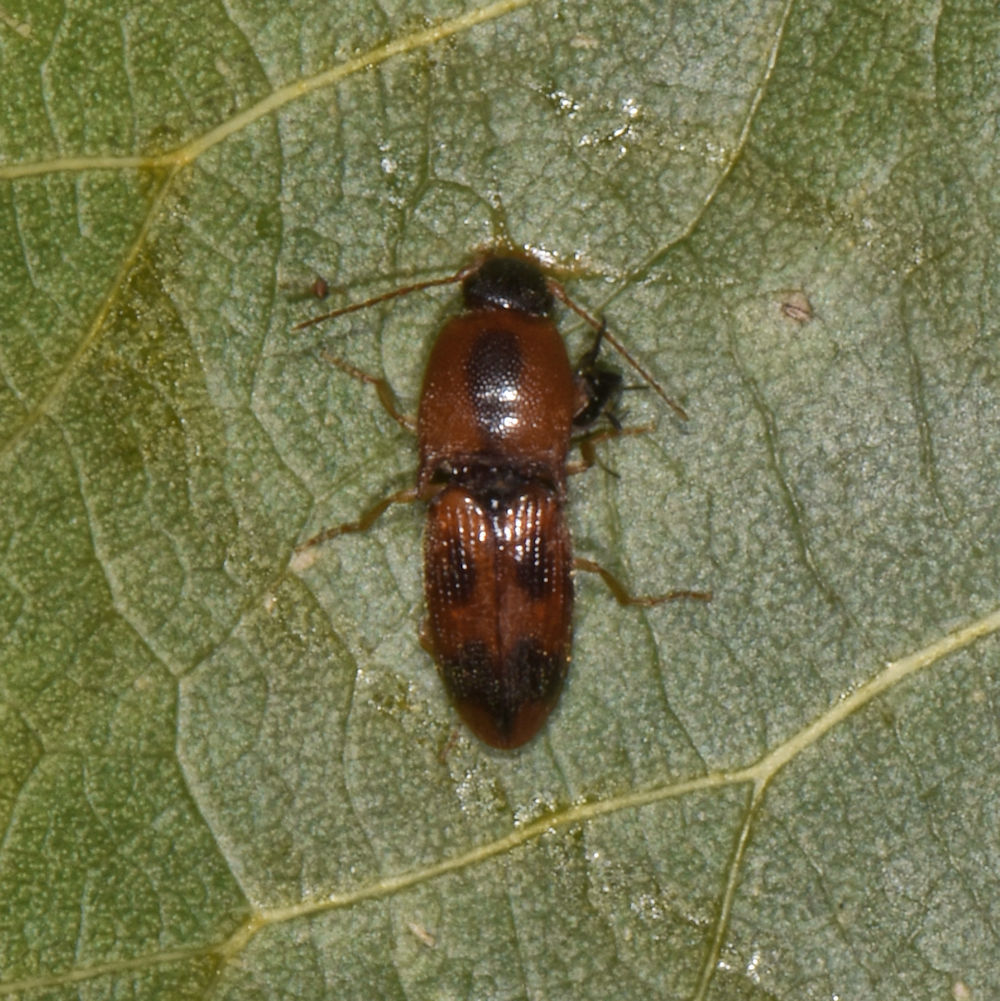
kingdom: Animalia
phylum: Arthropoda
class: Insecta
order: Coleoptera
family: Elateridae
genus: Aeolus
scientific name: Aeolus mellillus
